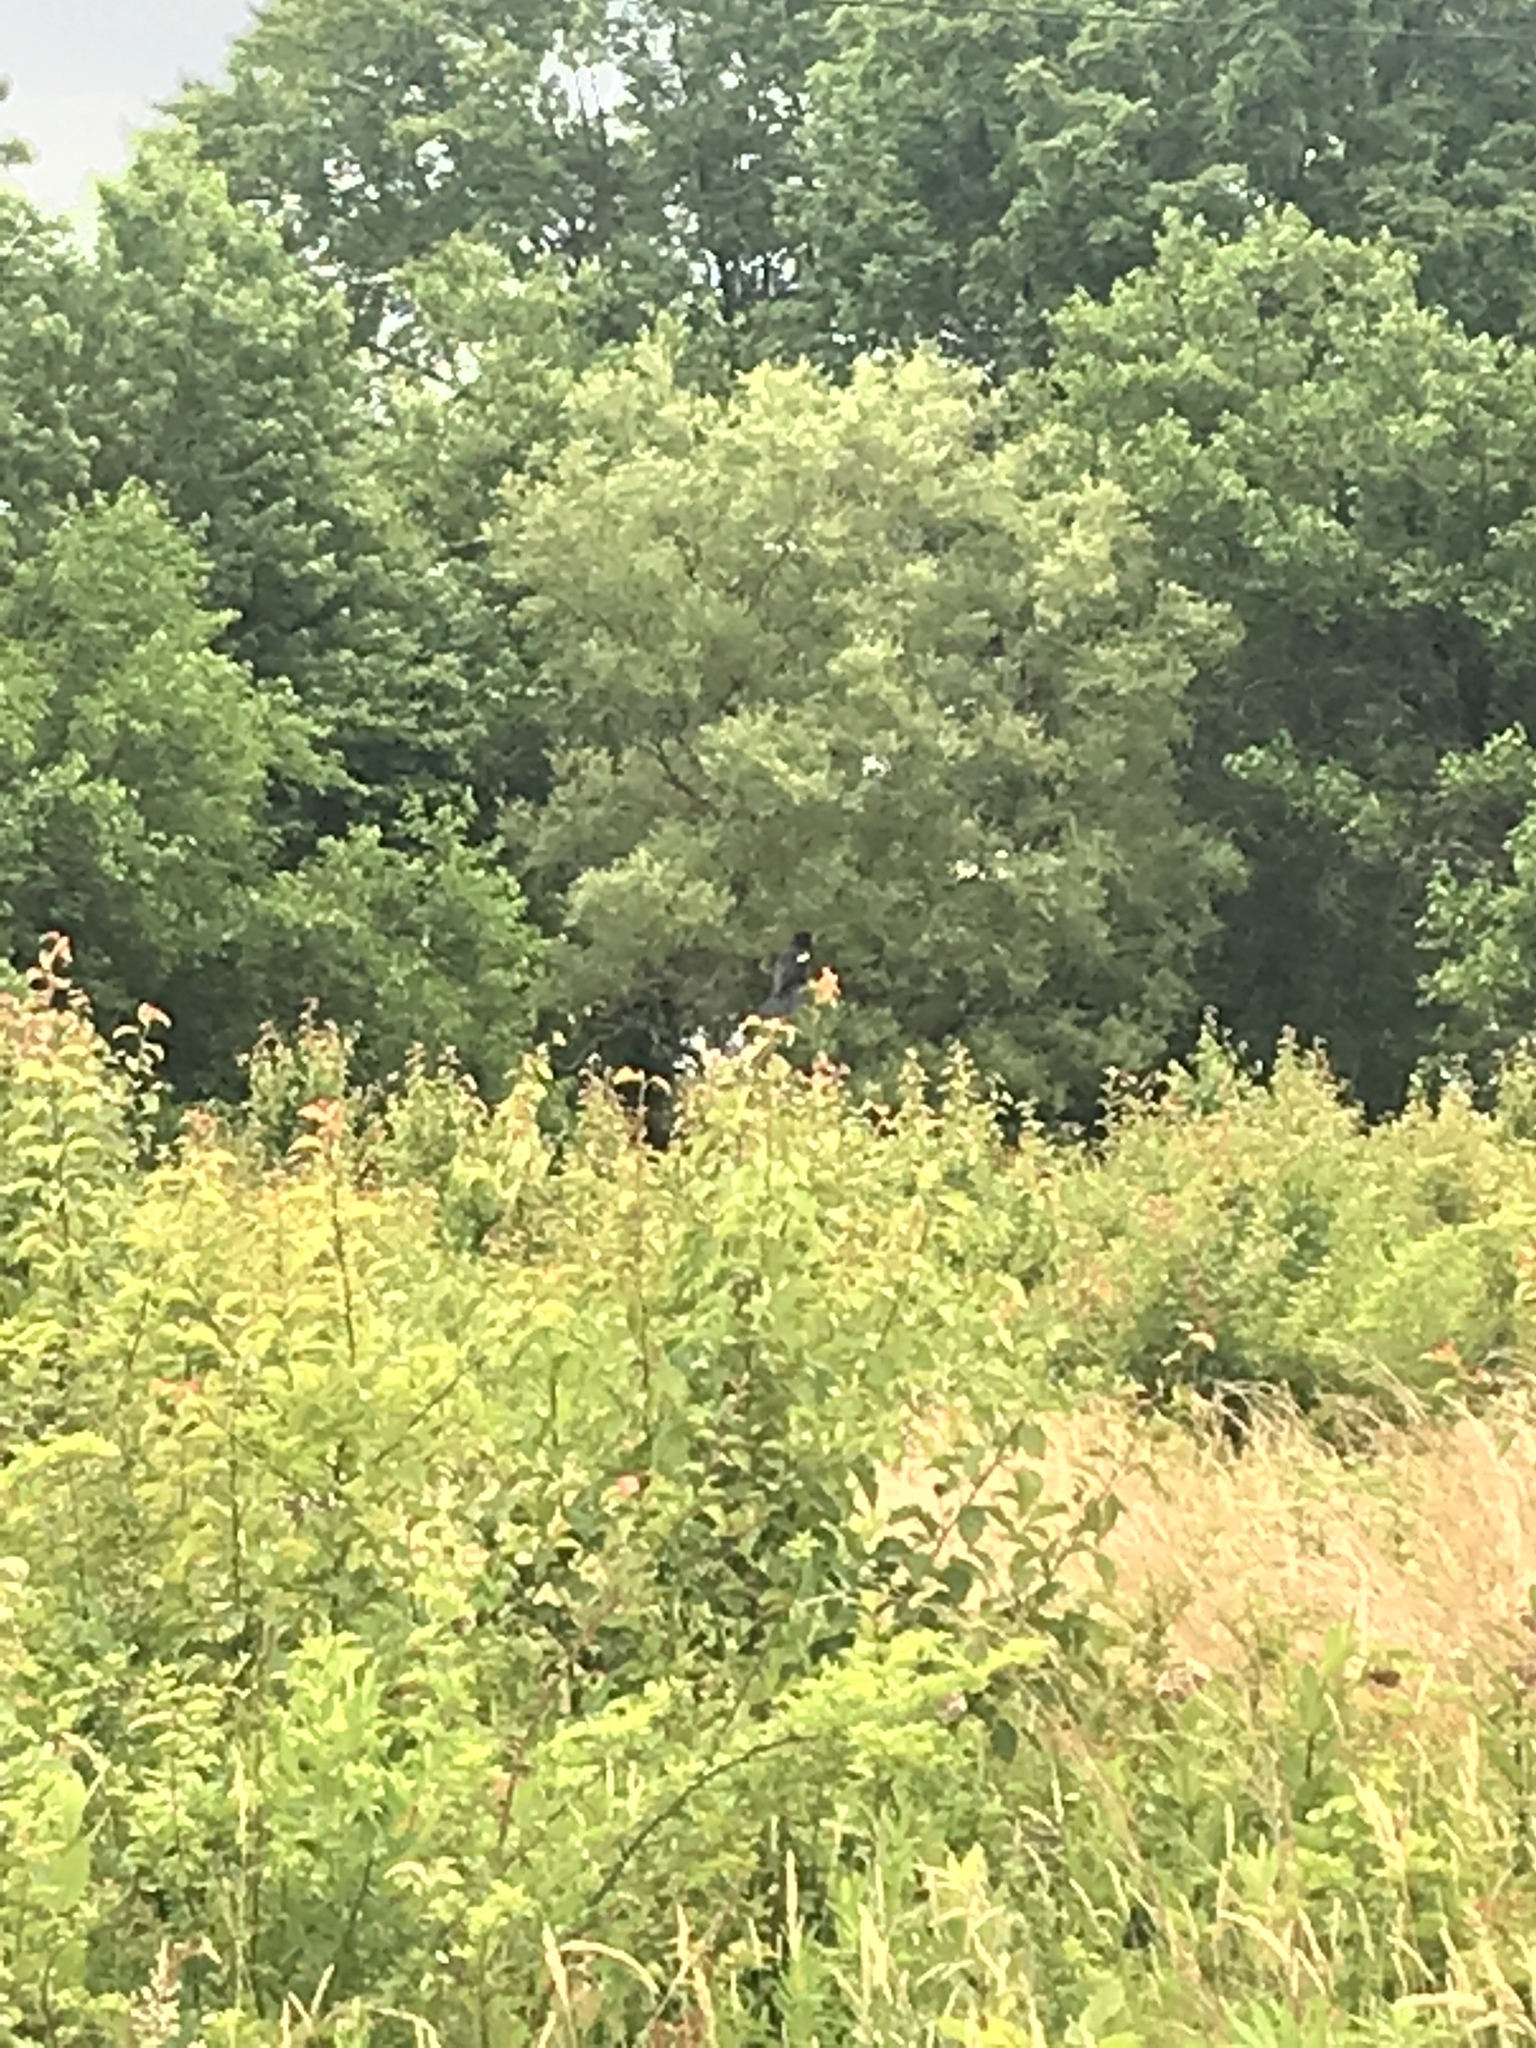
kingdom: Animalia
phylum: Chordata
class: Aves
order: Passeriformes
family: Icteridae
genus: Agelaius
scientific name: Agelaius phoeniceus
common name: Red-winged blackbird
